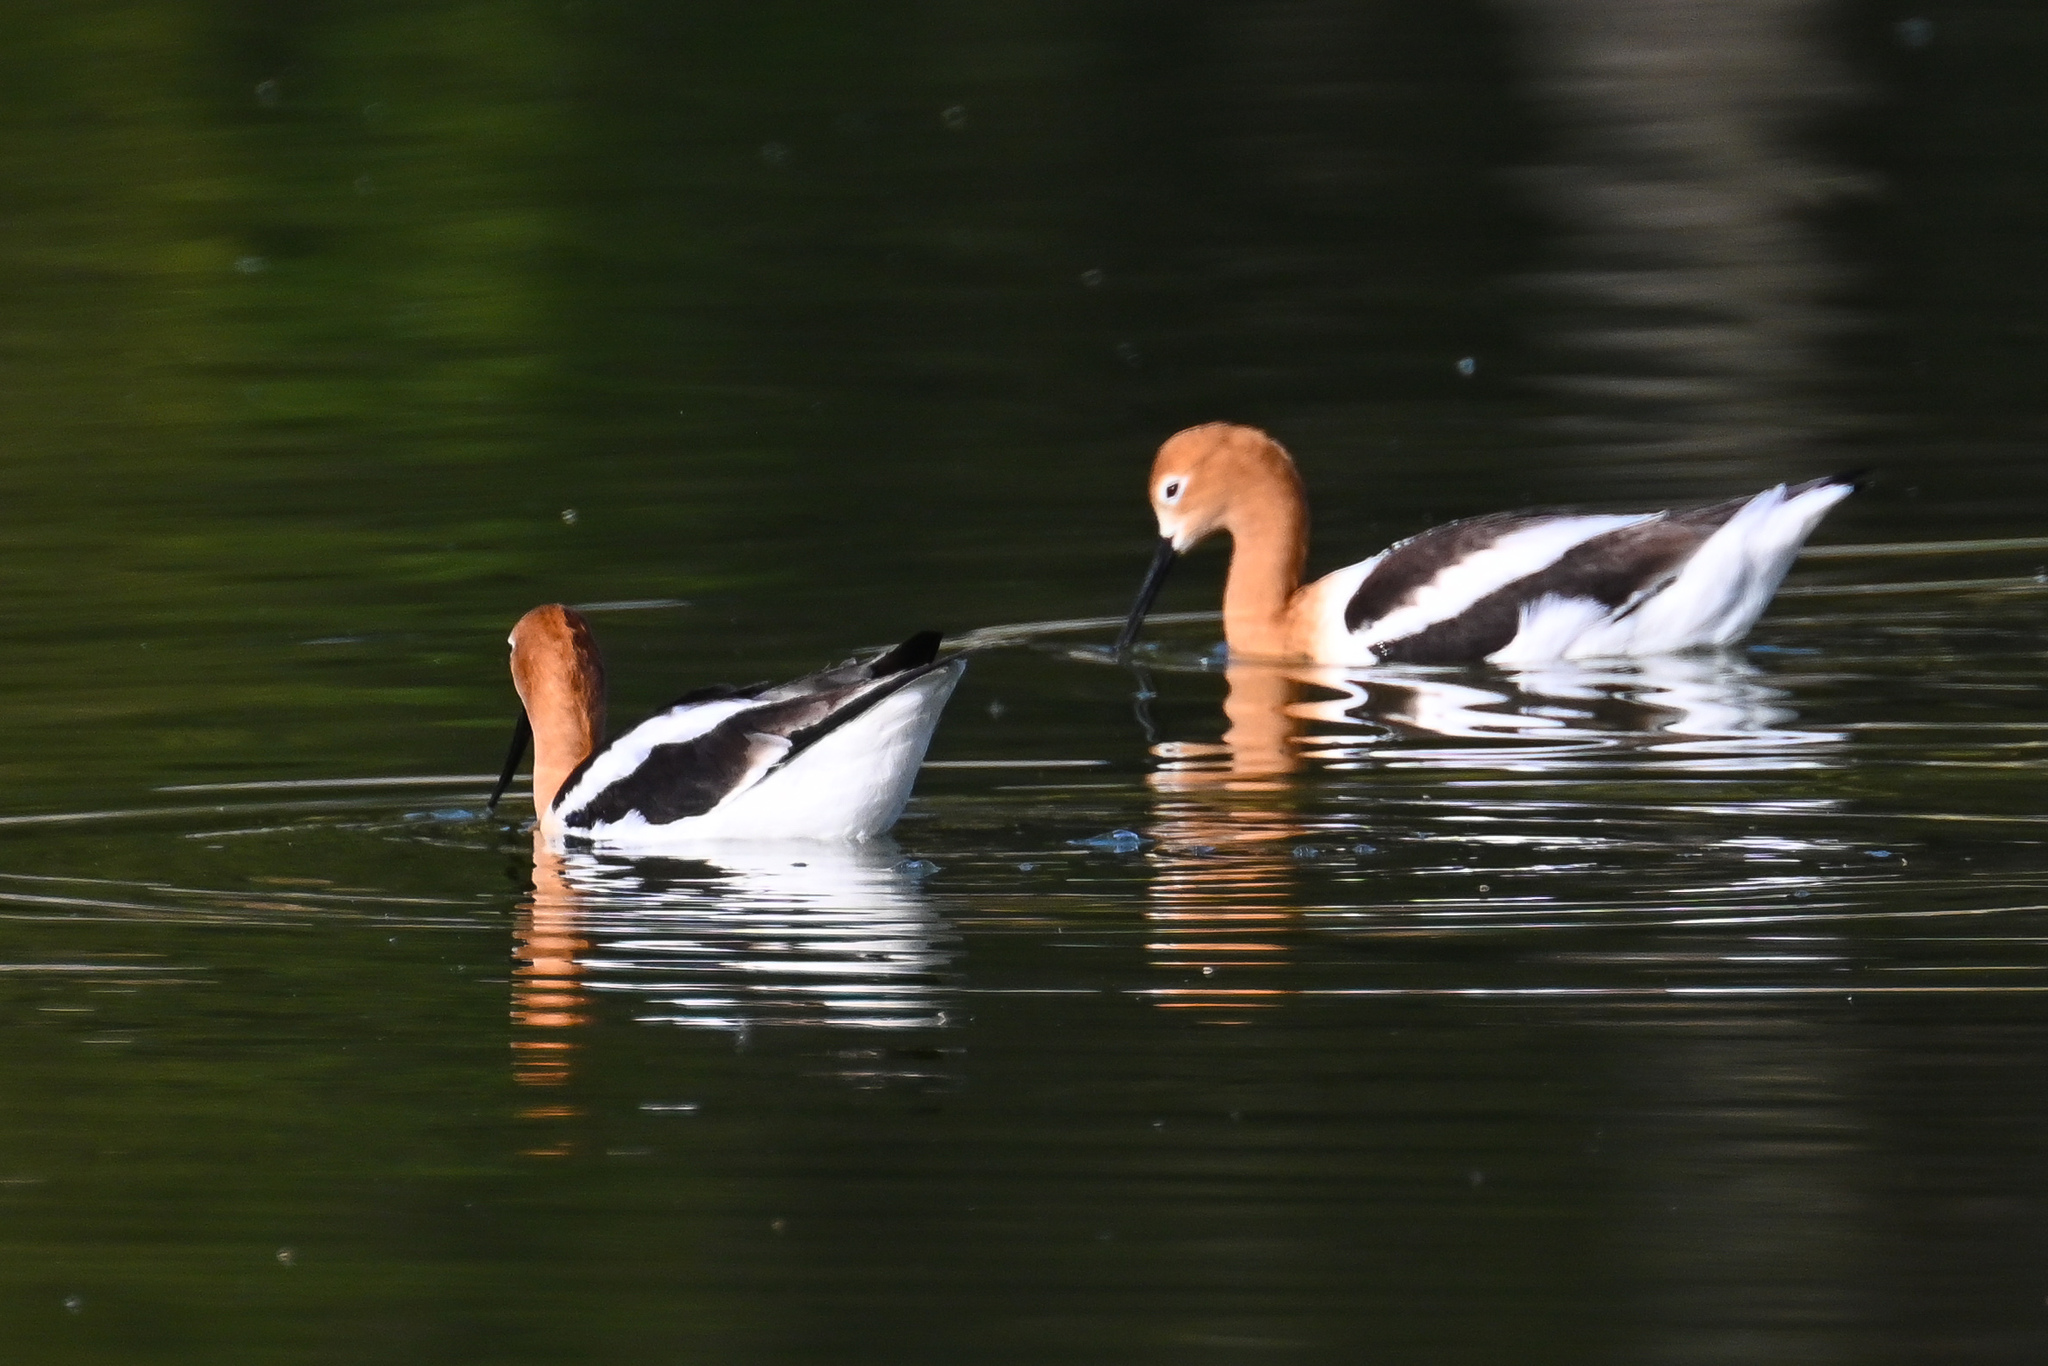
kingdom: Animalia
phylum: Chordata
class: Aves
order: Charadriiformes
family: Recurvirostridae
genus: Recurvirostra
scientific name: Recurvirostra americana
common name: American avocet
